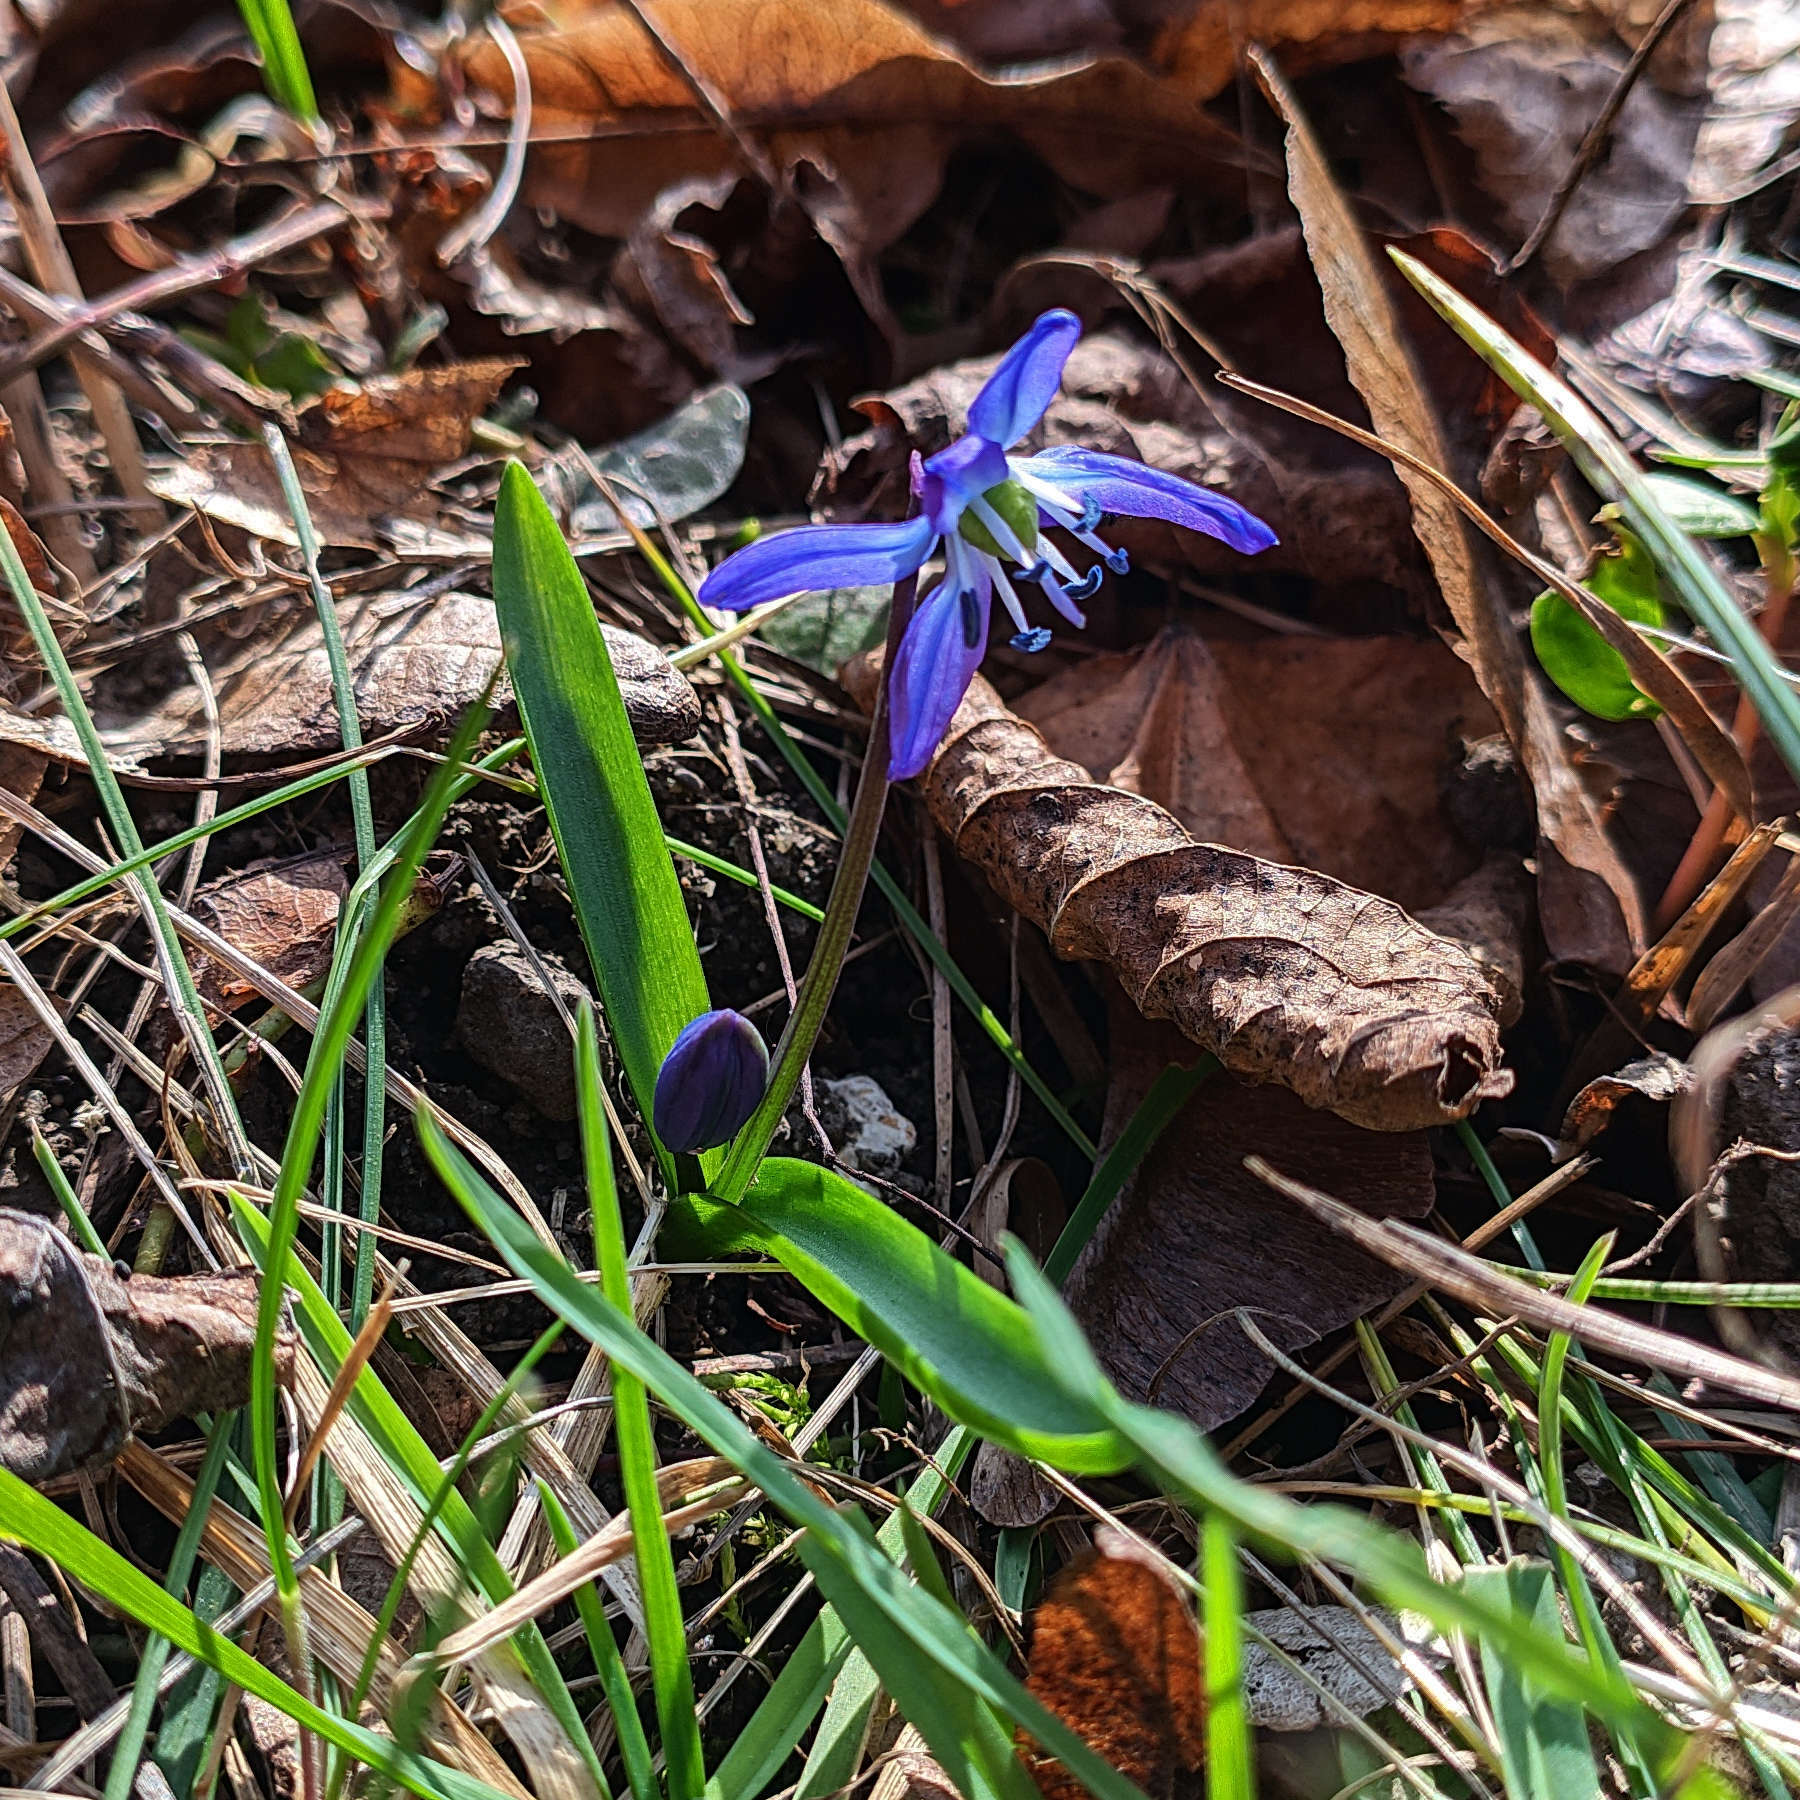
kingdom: Plantae
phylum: Tracheophyta
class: Liliopsida
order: Asparagales
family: Asparagaceae
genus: Scilla
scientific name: Scilla siberica
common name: Siberian squill
